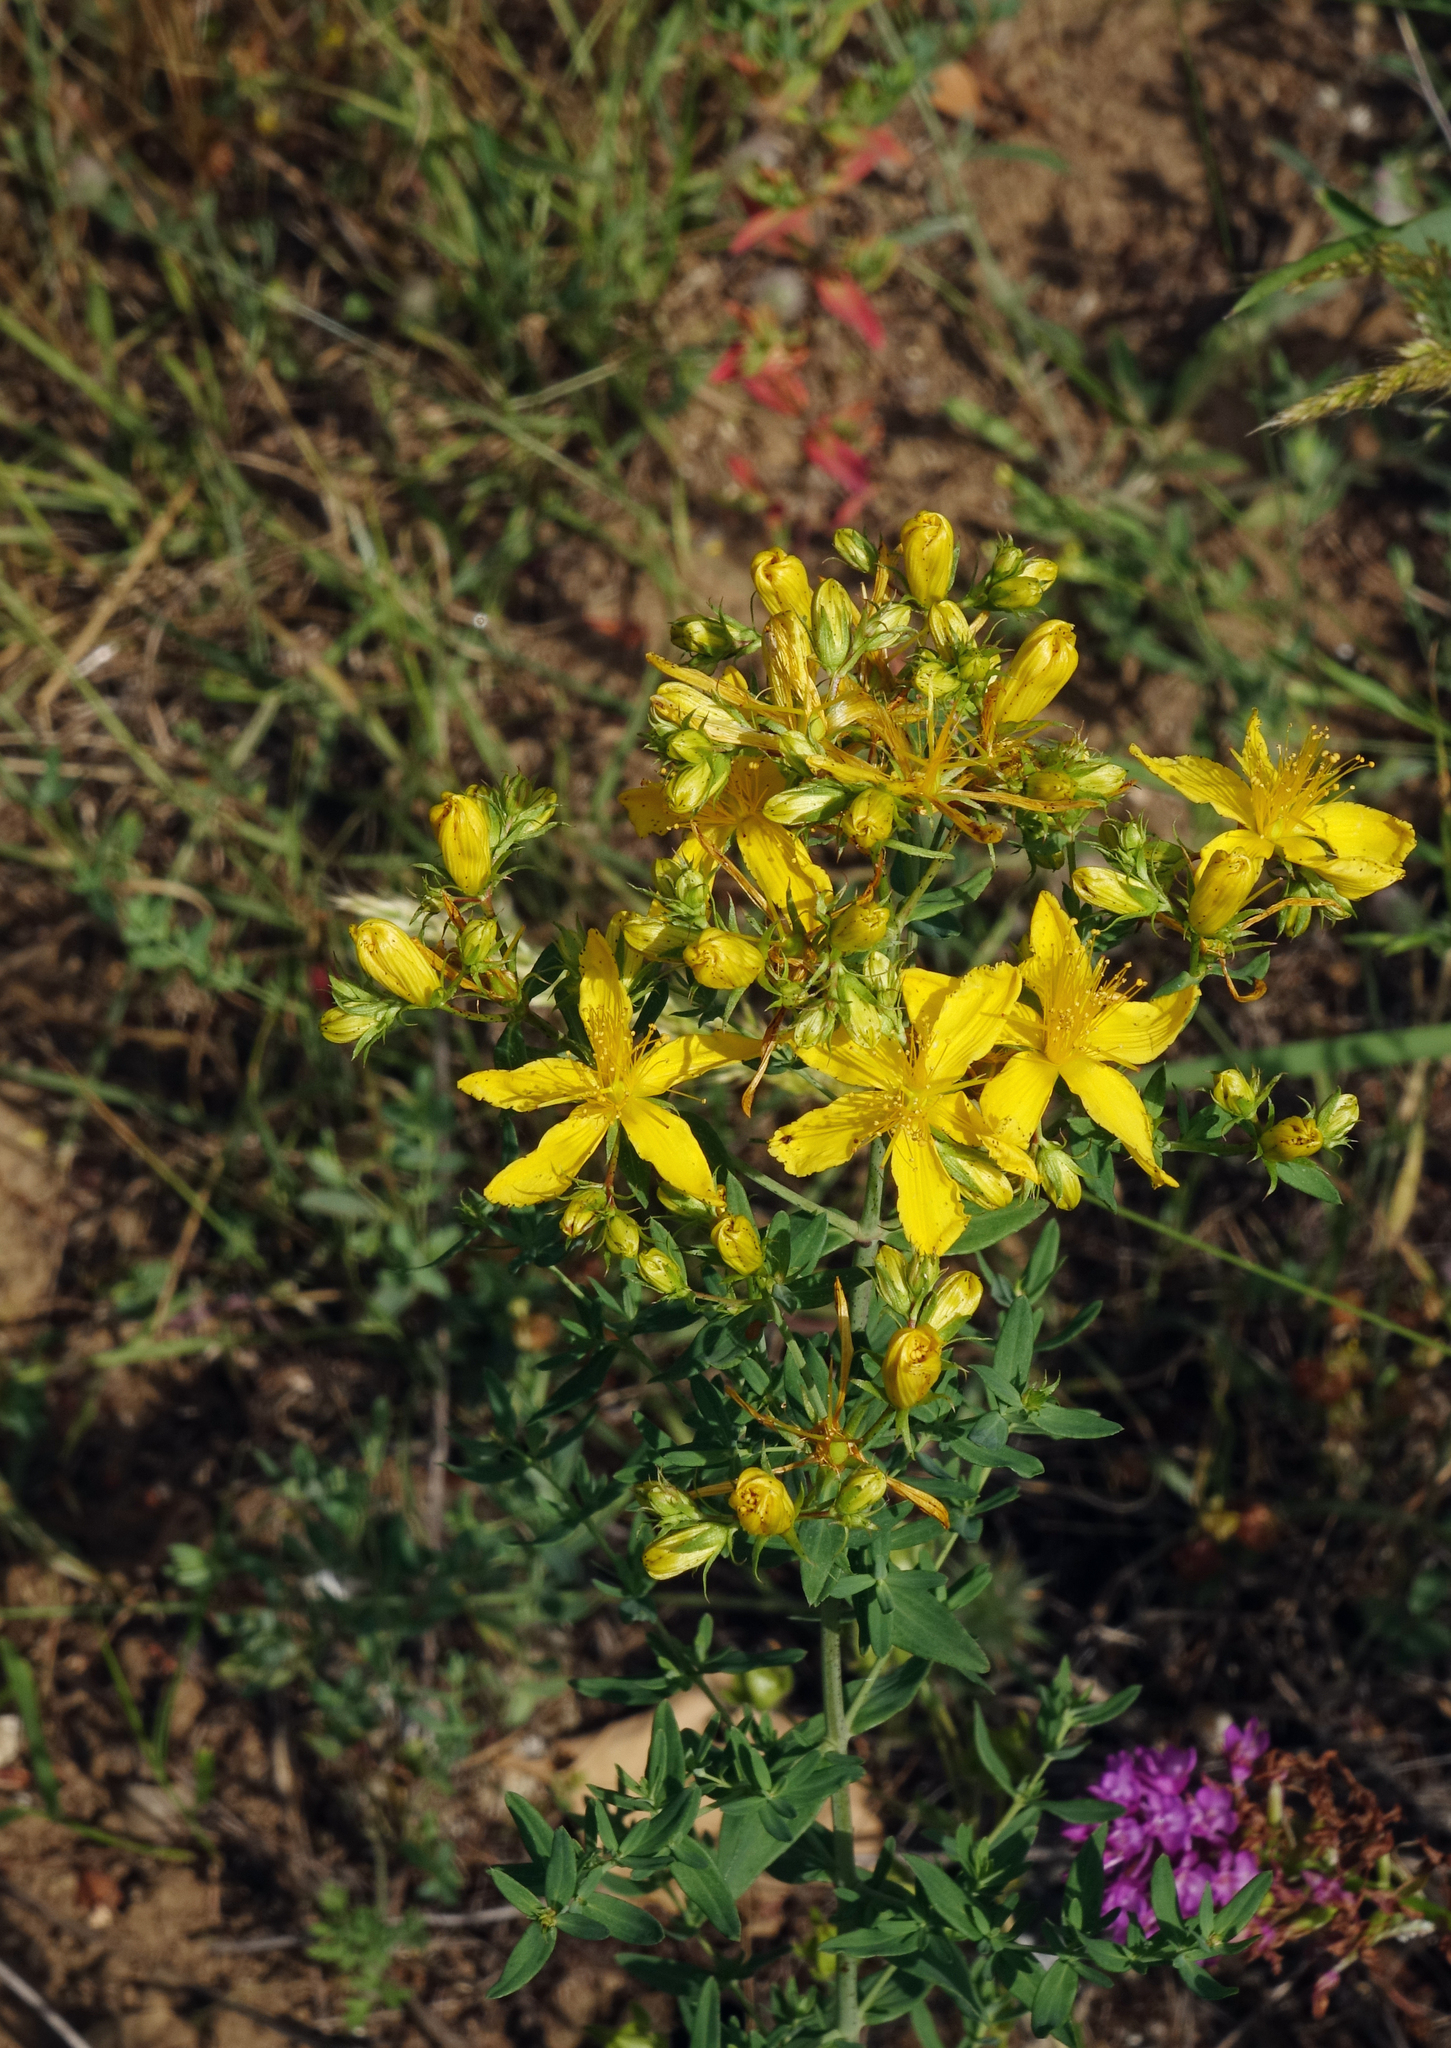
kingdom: Plantae
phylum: Tracheophyta
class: Magnoliopsida
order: Malpighiales
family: Hypericaceae
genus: Hypericum
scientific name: Hypericum perforatum
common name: Common st. johnswort
